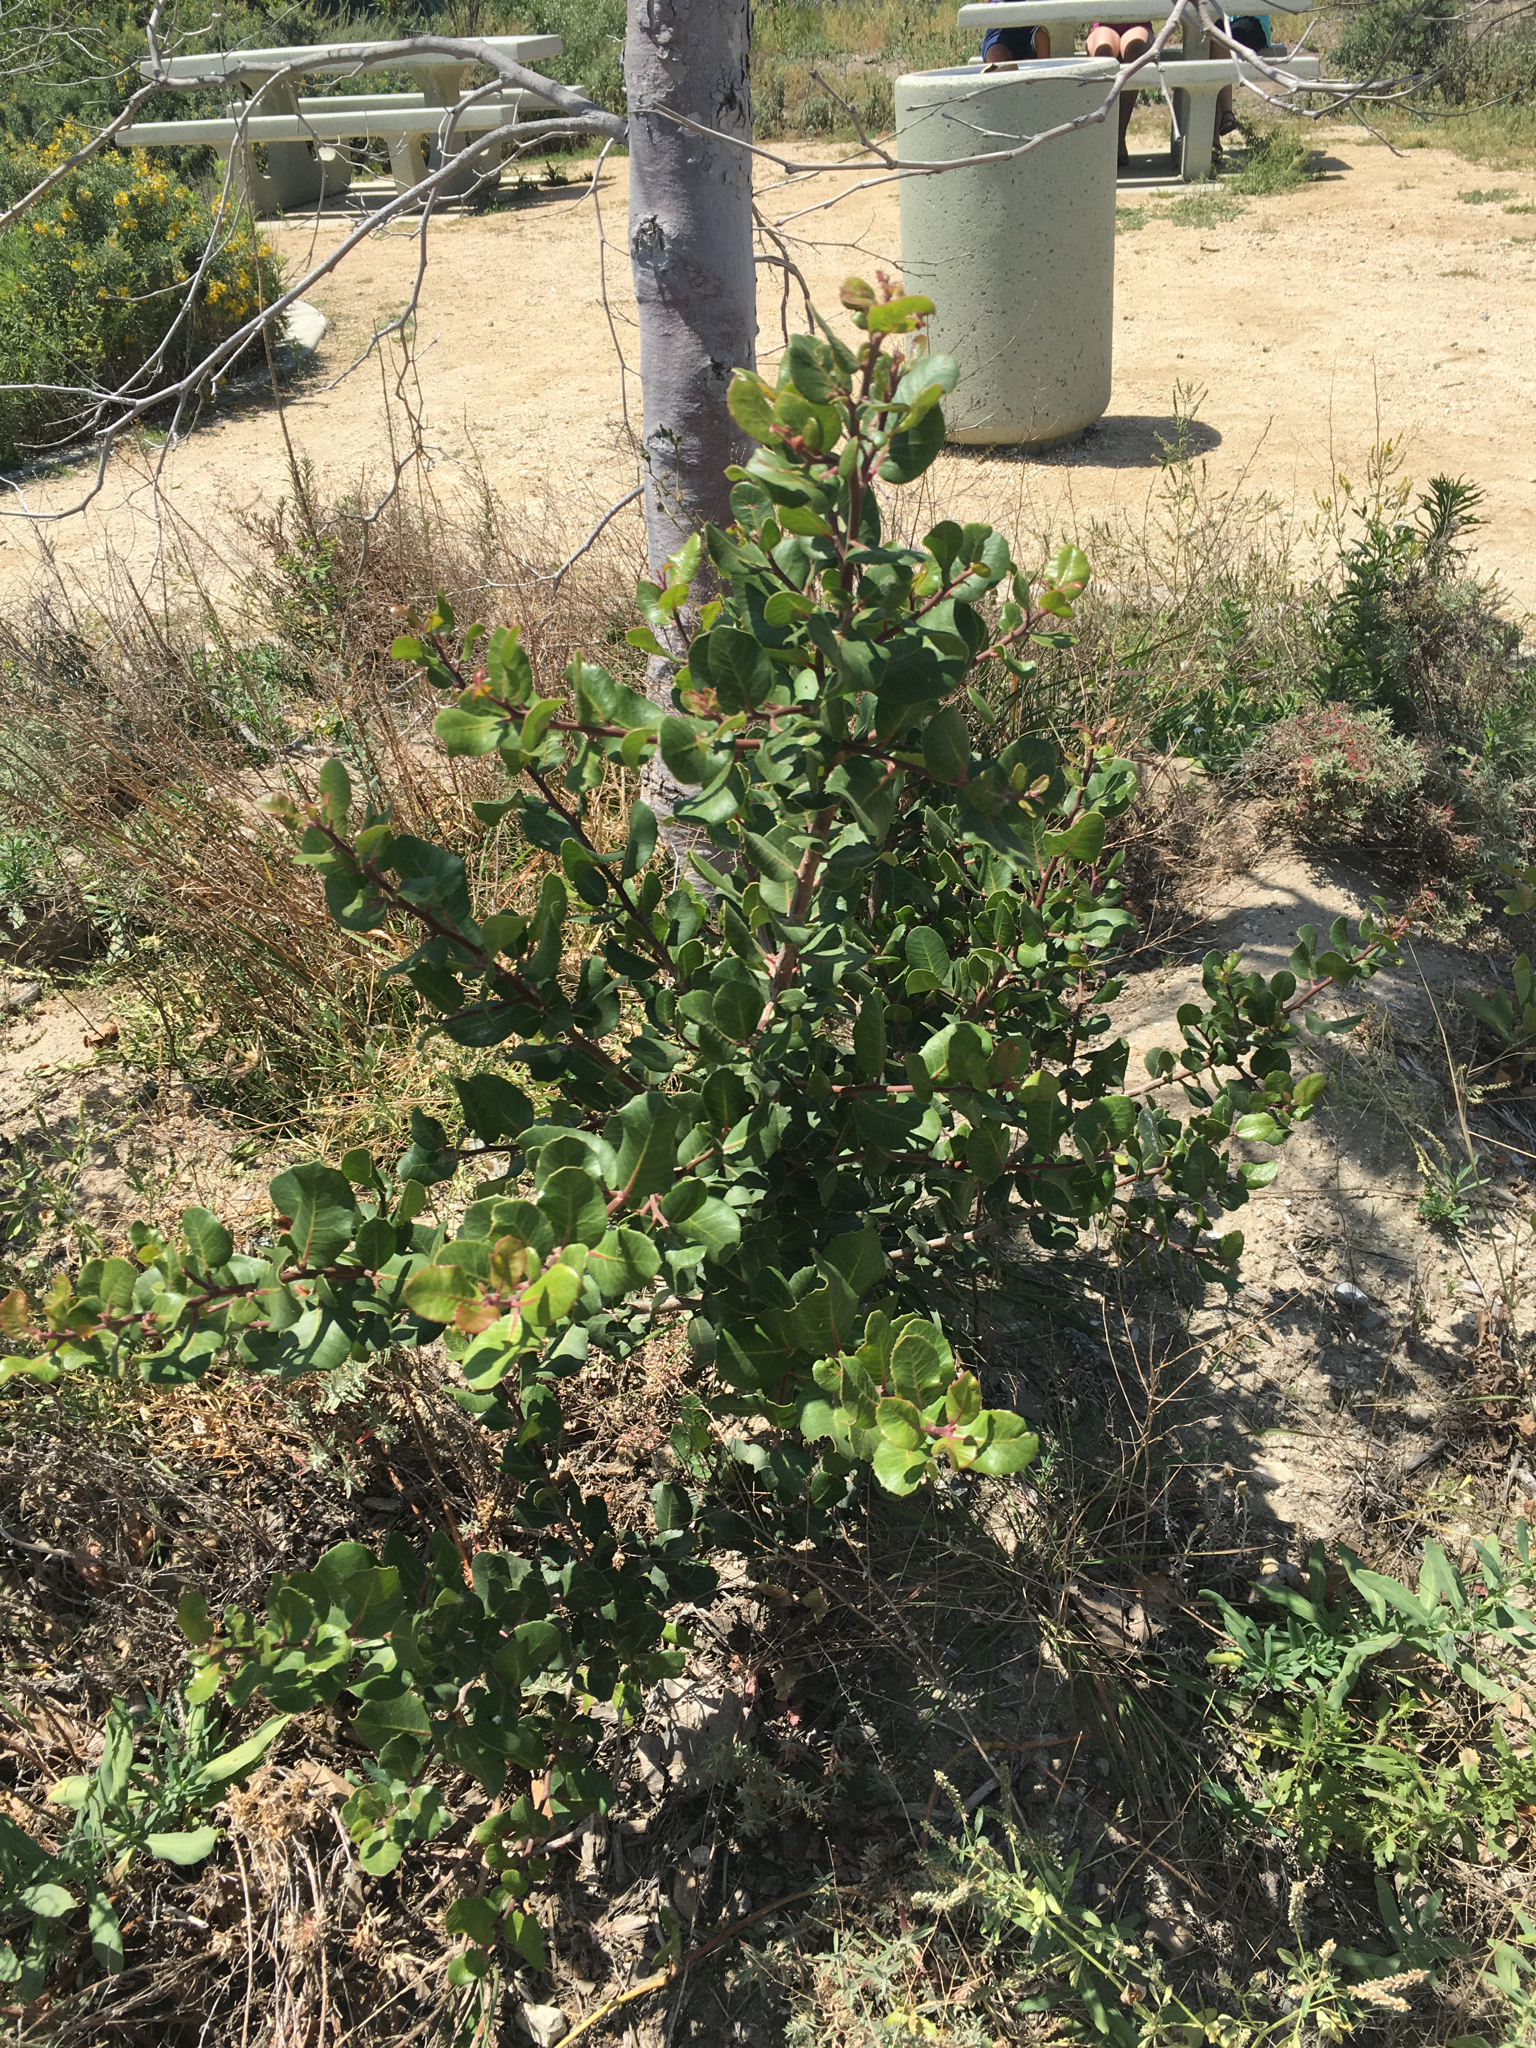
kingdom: Plantae
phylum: Tracheophyta
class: Magnoliopsida
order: Sapindales
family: Anacardiaceae
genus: Rhus
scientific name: Rhus integrifolia
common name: Lemonade sumac
